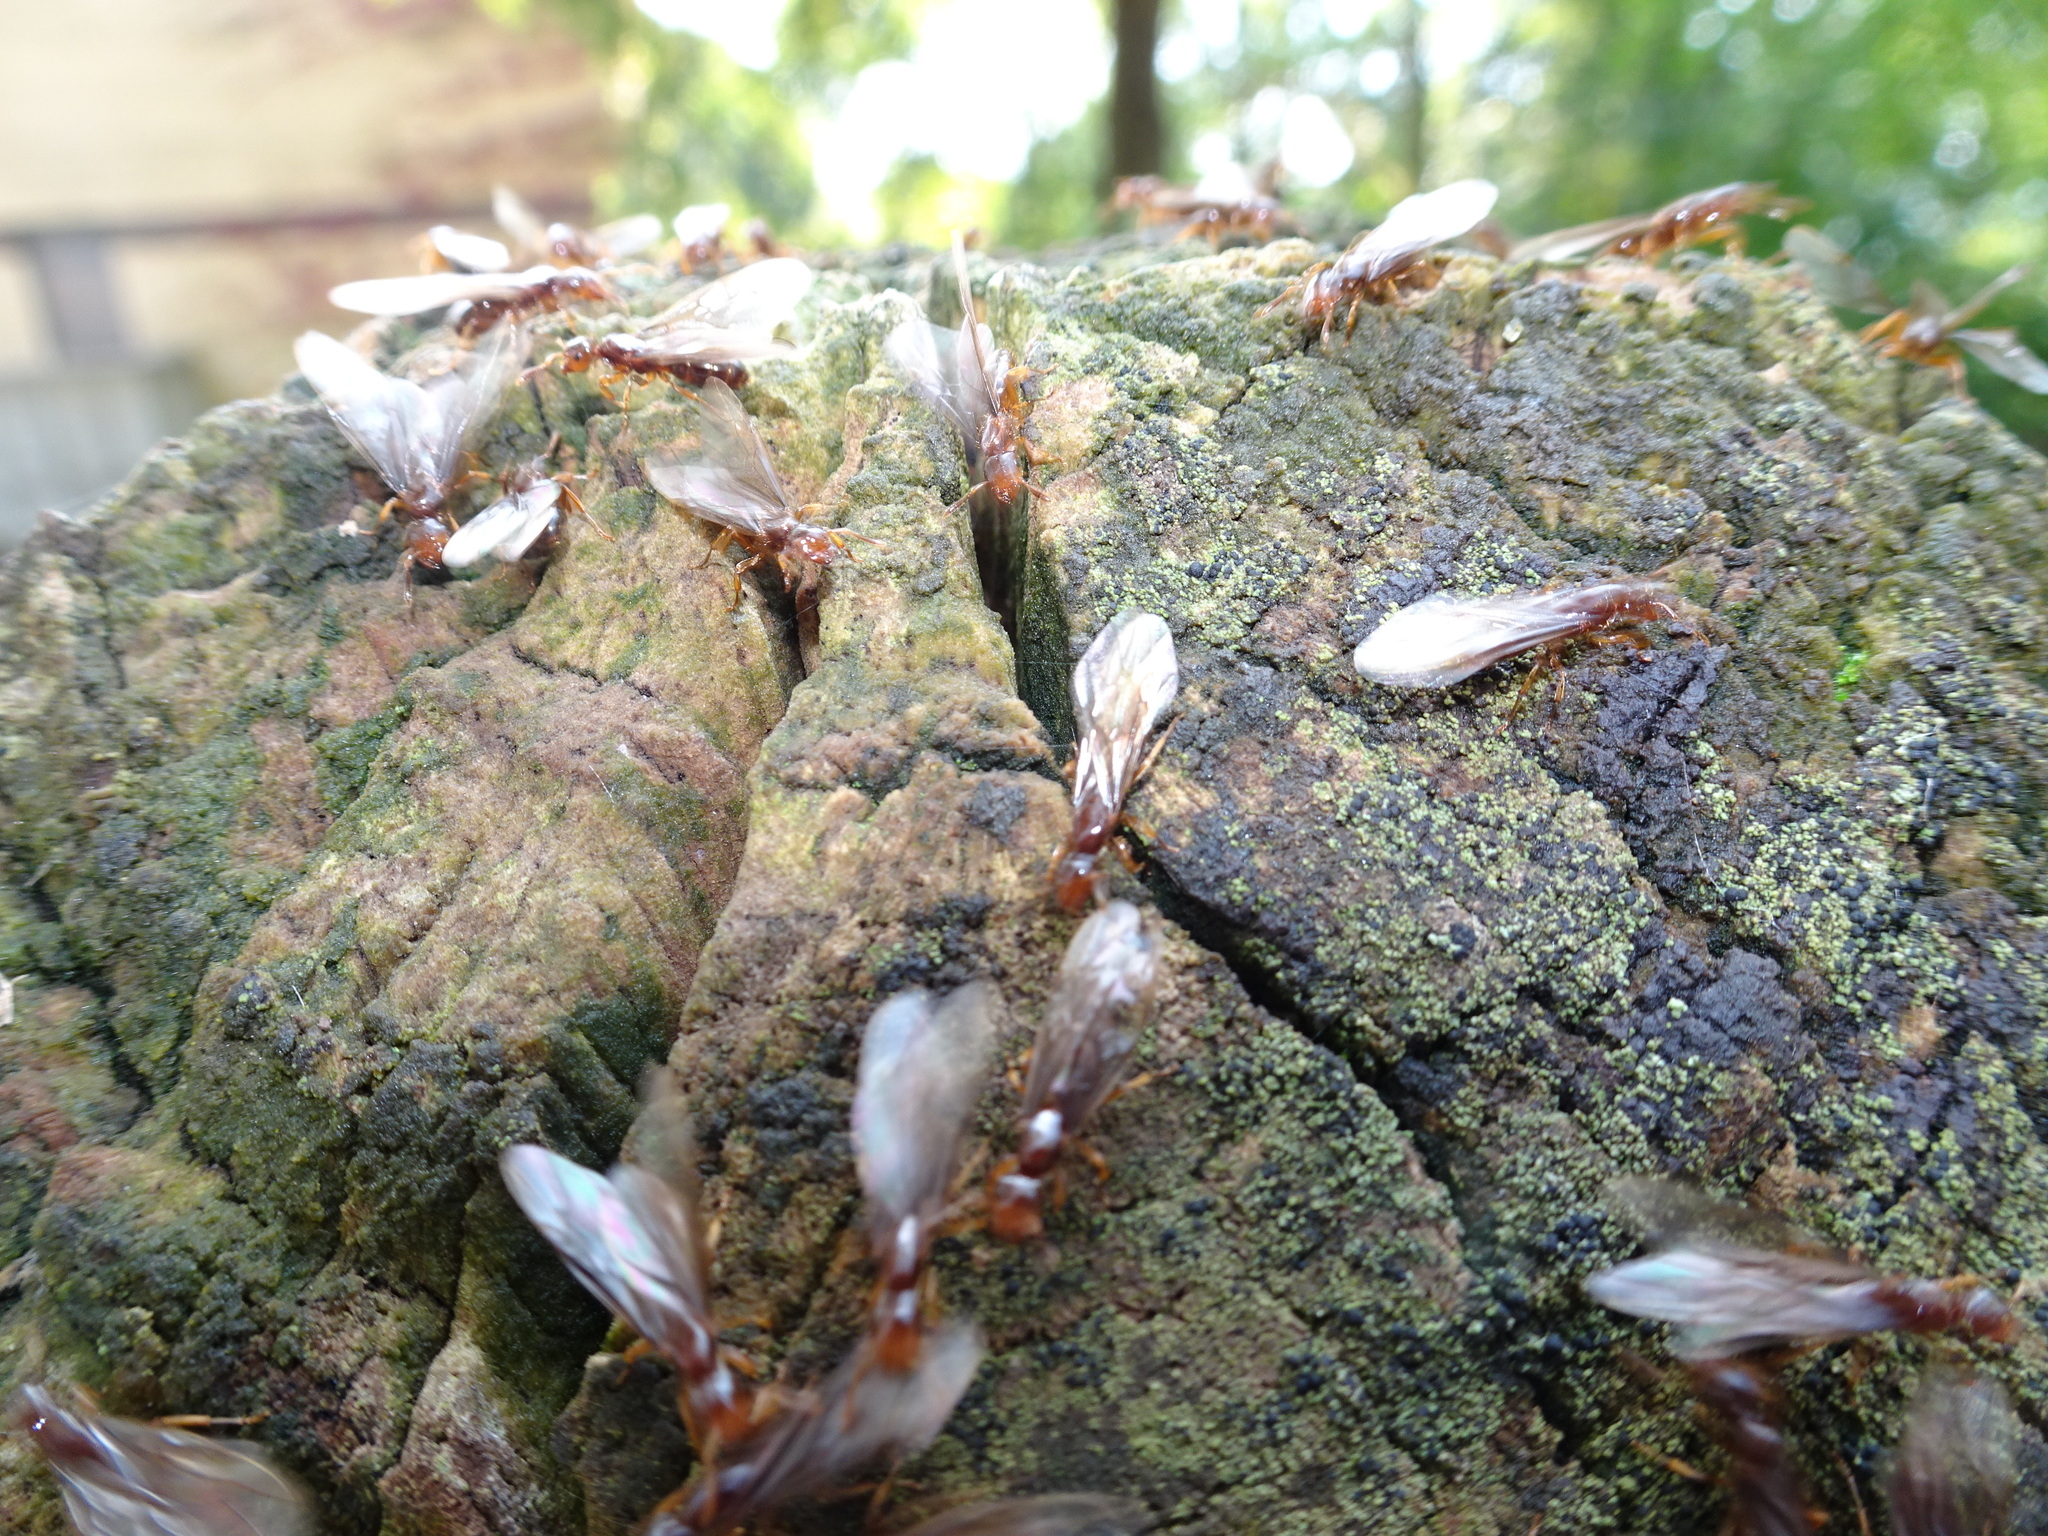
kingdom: Animalia
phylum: Arthropoda
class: Insecta
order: Hymenoptera
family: Formicidae
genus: Lasius
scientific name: Lasius claviger
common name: Common citronella ant
